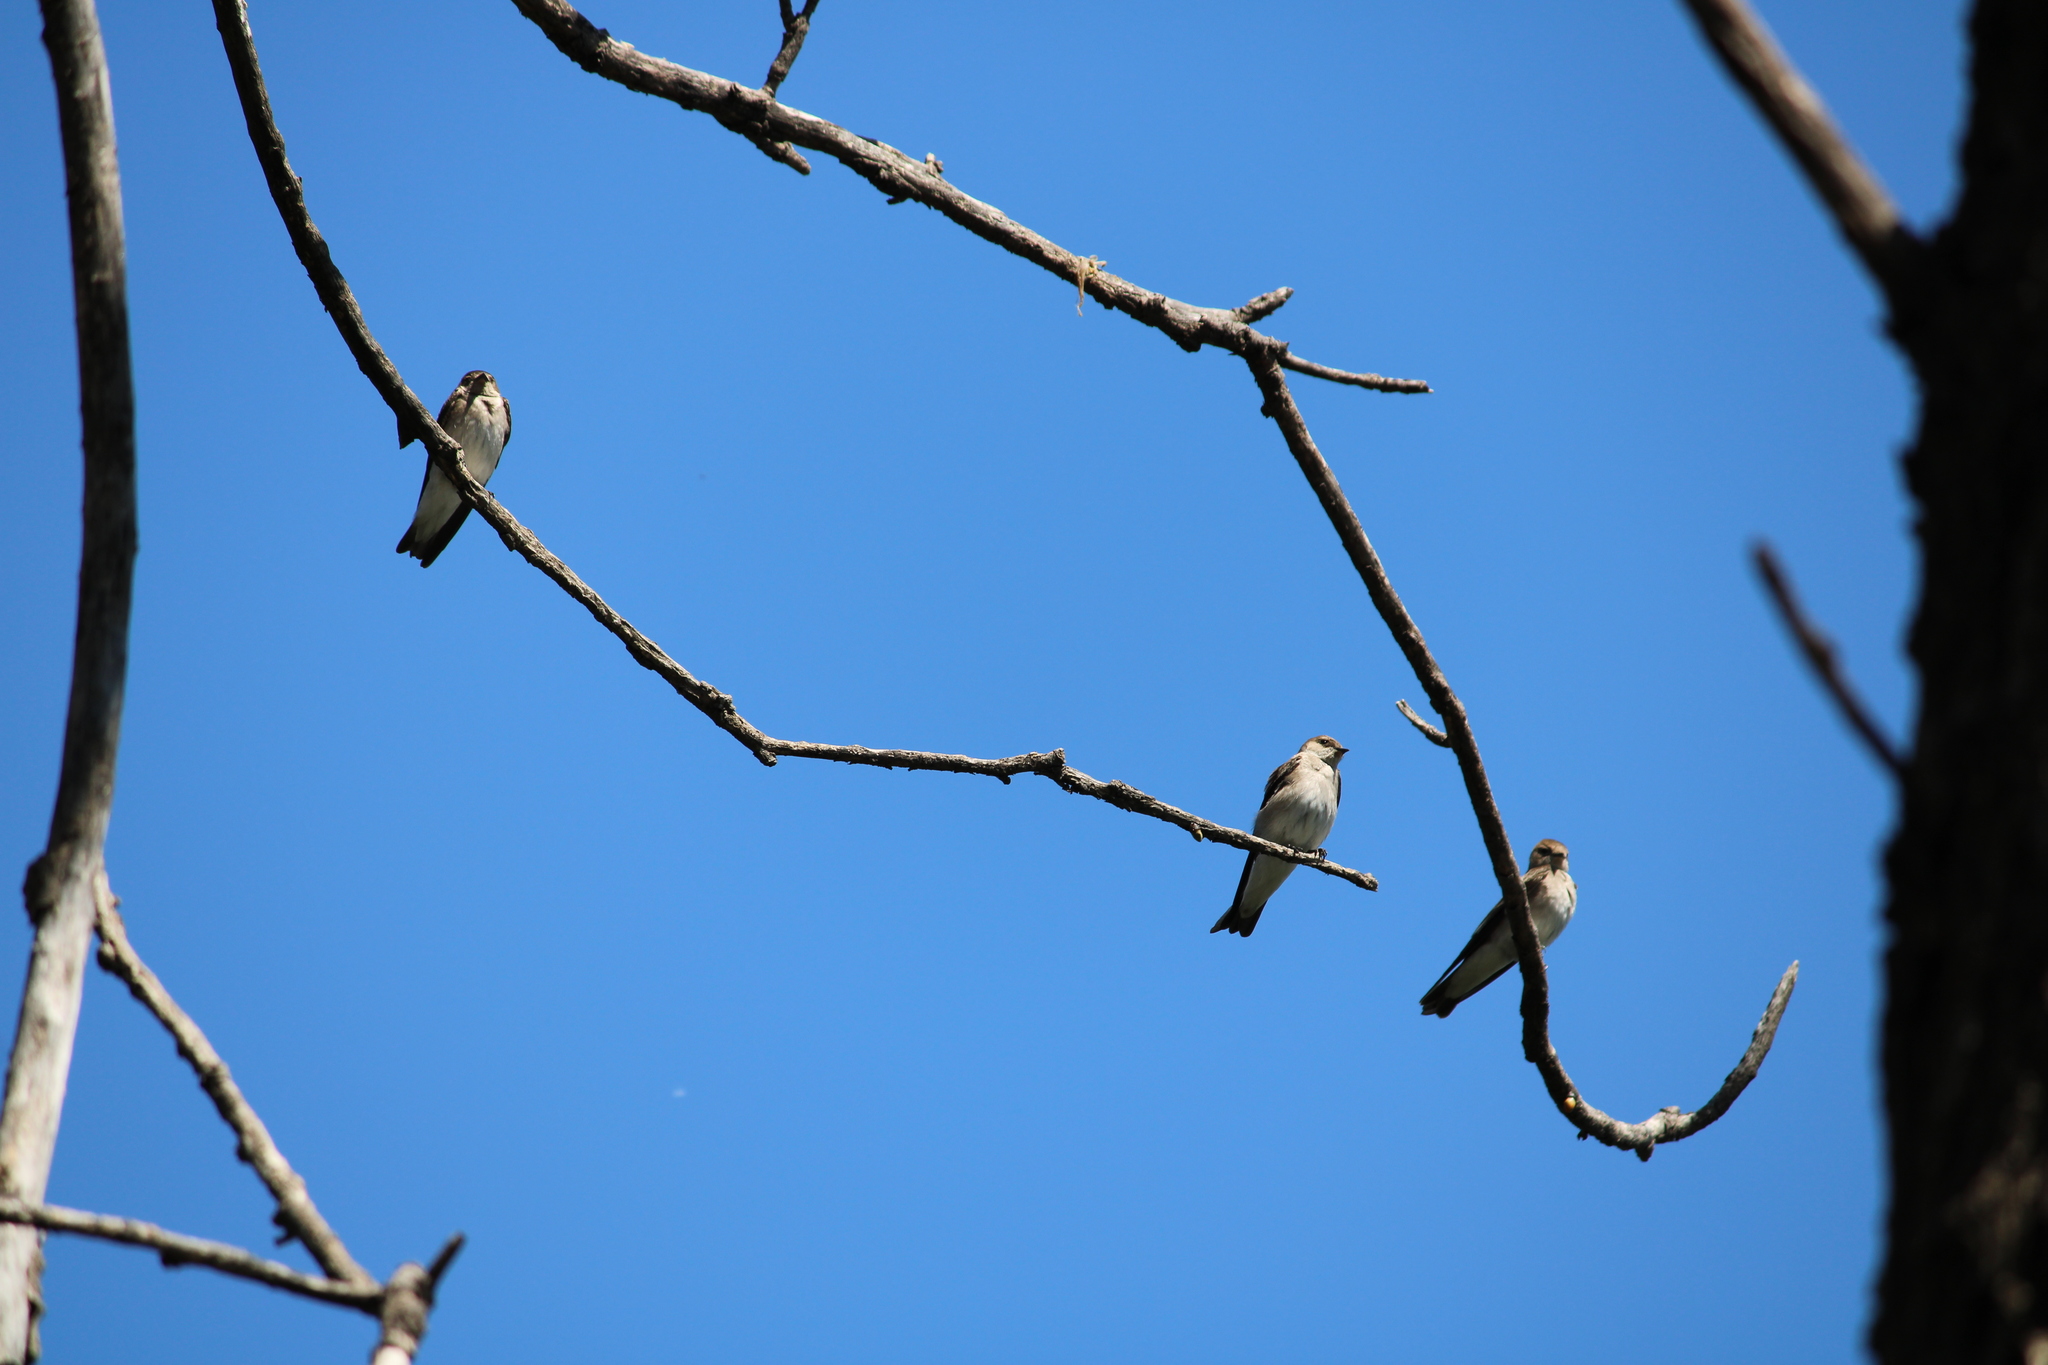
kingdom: Animalia
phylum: Chordata
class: Aves
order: Passeriformes
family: Hirundinidae
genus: Stelgidopteryx
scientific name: Stelgidopteryx serripennis
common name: Northern rough-winged swallow
